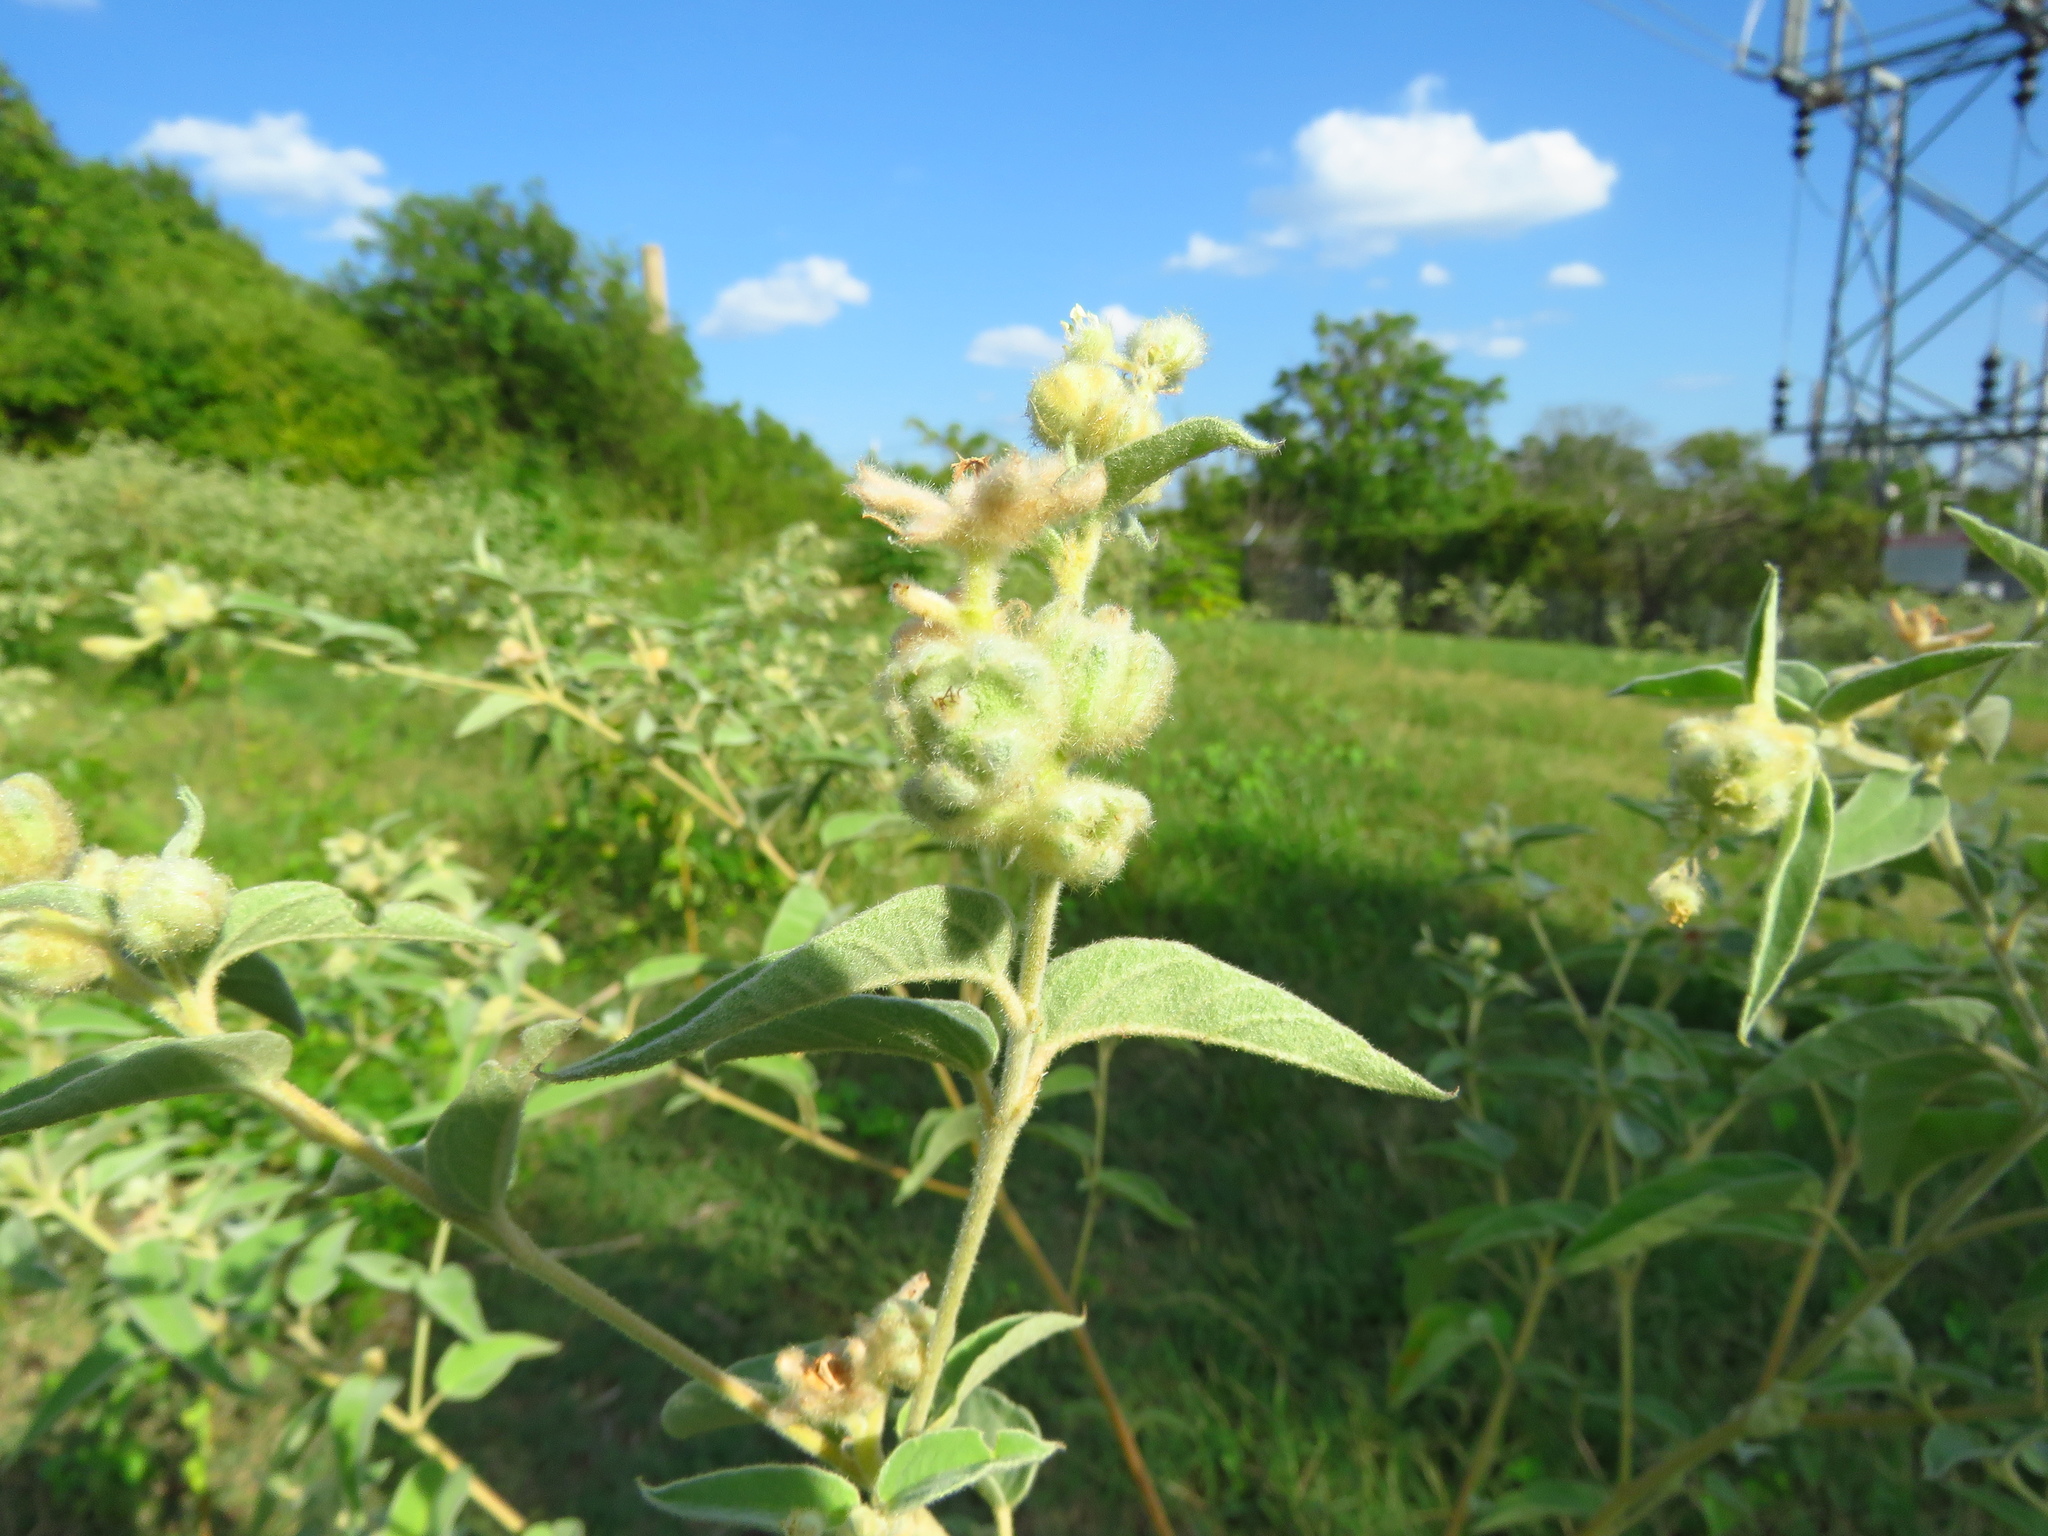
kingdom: Plantae
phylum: Tracheophyta
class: Magnoliopsida
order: Malpighiales
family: Euphorbiaceae
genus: Croton
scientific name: Croton lindheimeri
